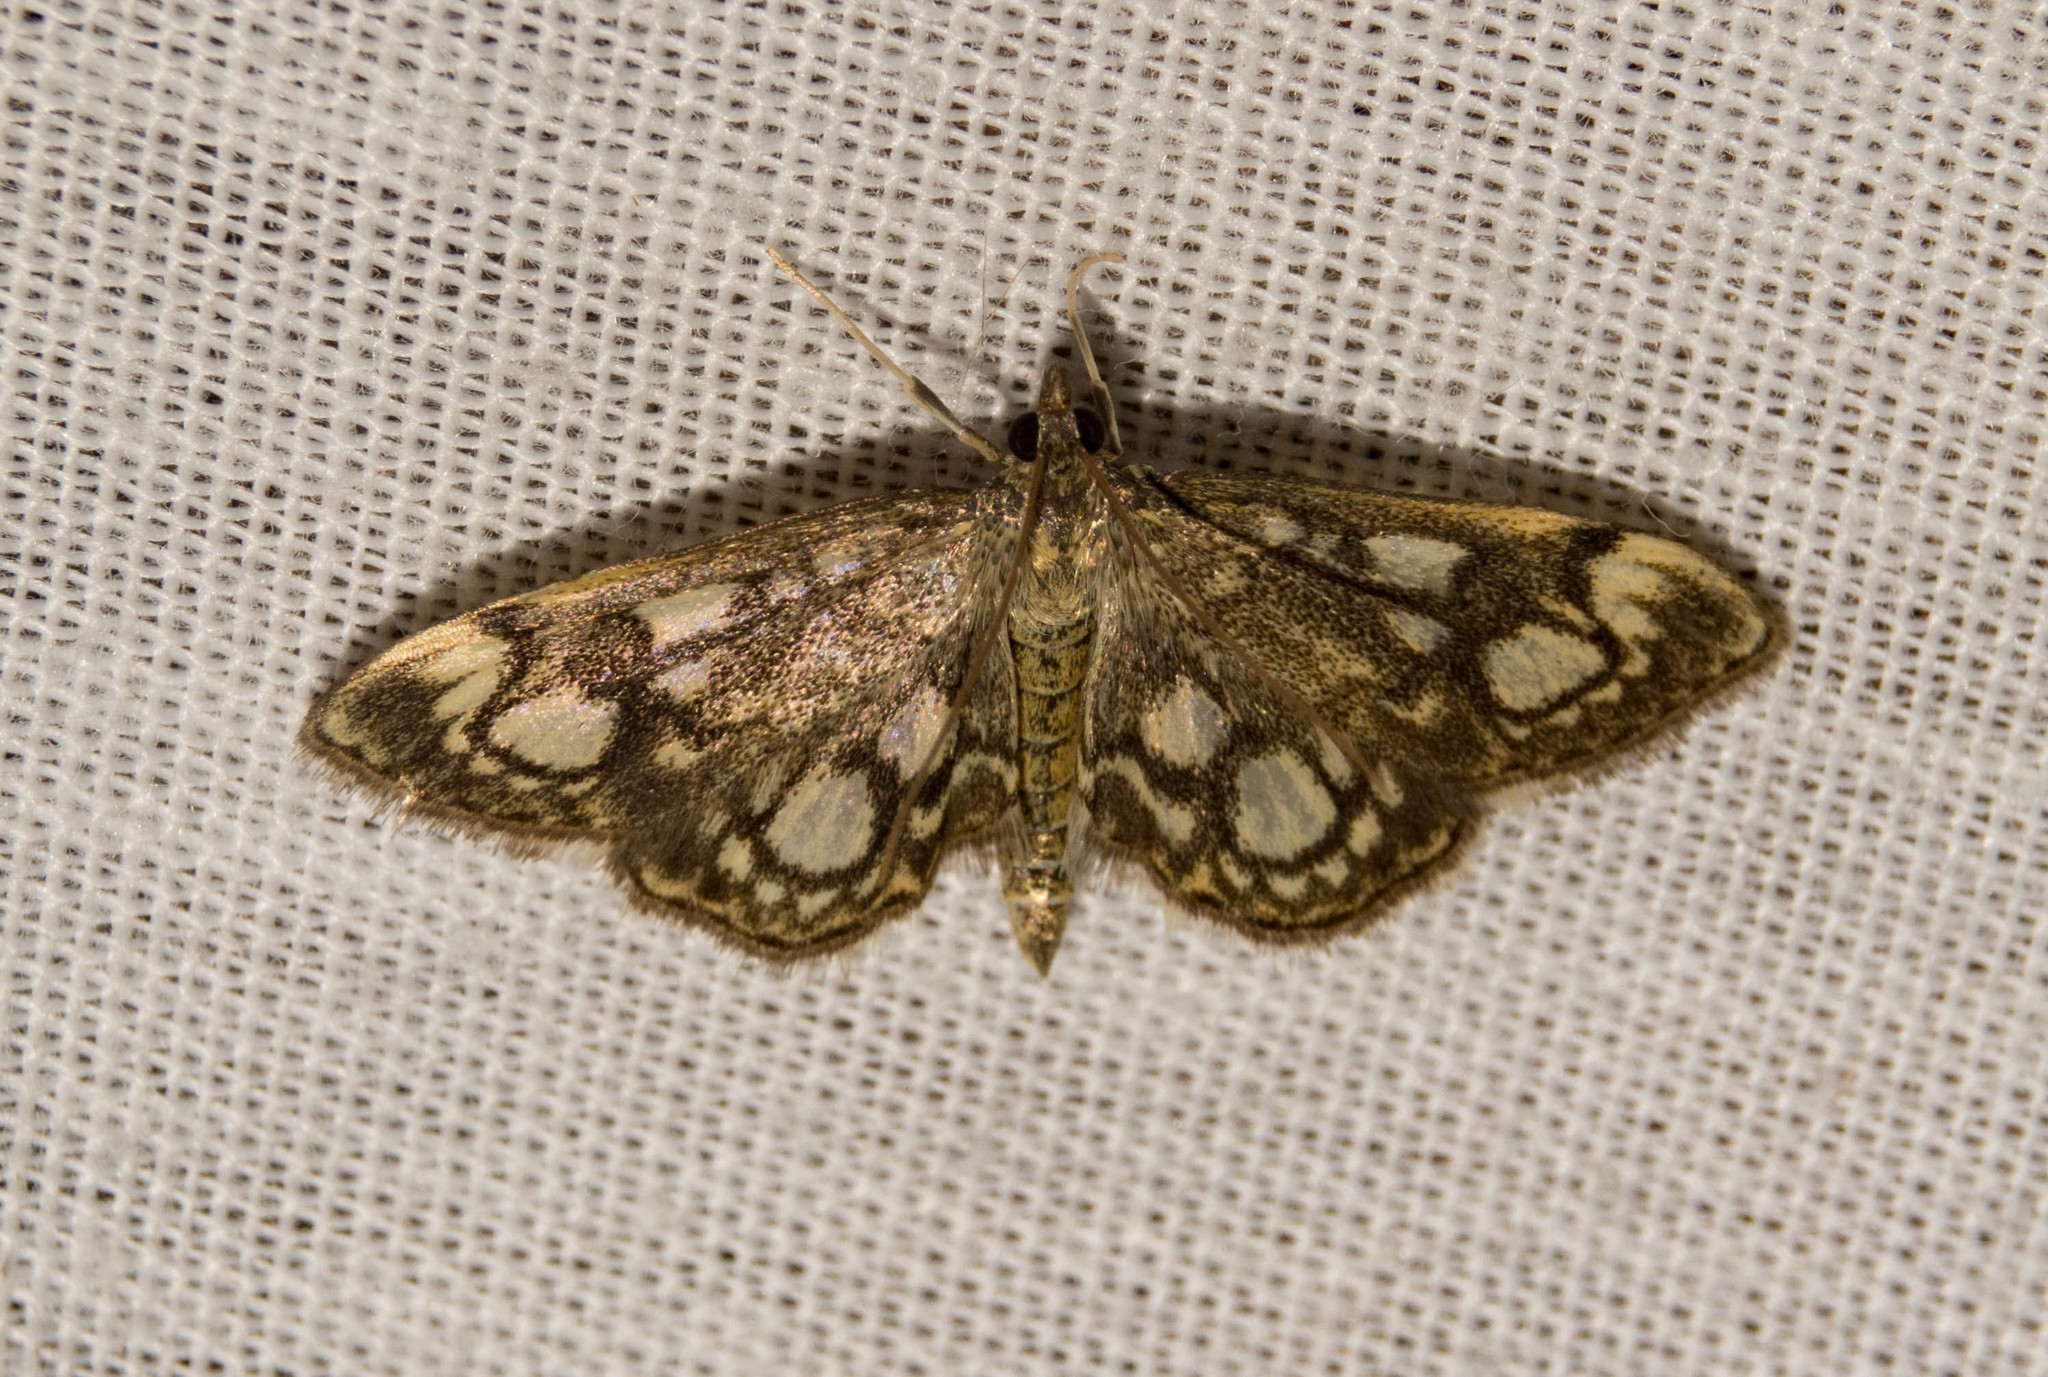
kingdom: Animalia
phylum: Arthropoda
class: Insecta
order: Lepidoptera
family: Crambidae
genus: Anania
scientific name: Anania coronata
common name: Elder pearl
